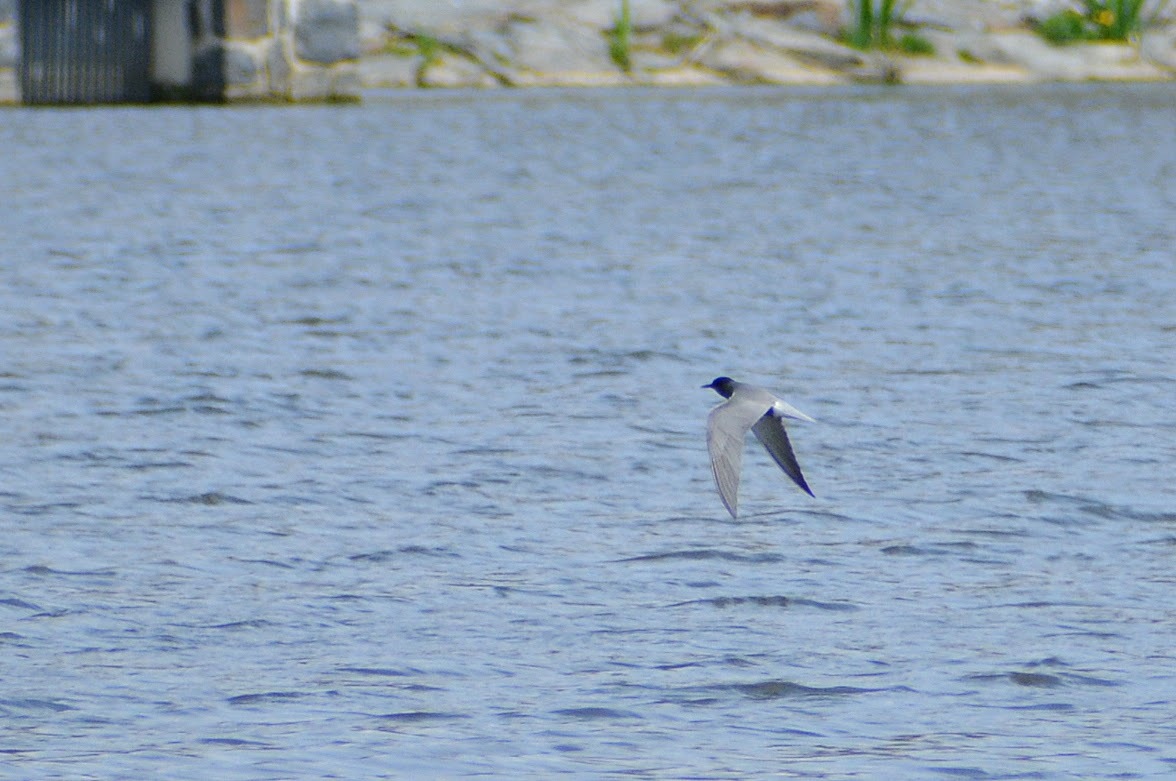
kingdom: Animalia
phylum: Chordata
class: Aves
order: Charadriiformes
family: Laridae
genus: Chlidonias
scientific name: Chlidonias niger
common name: Black tern
